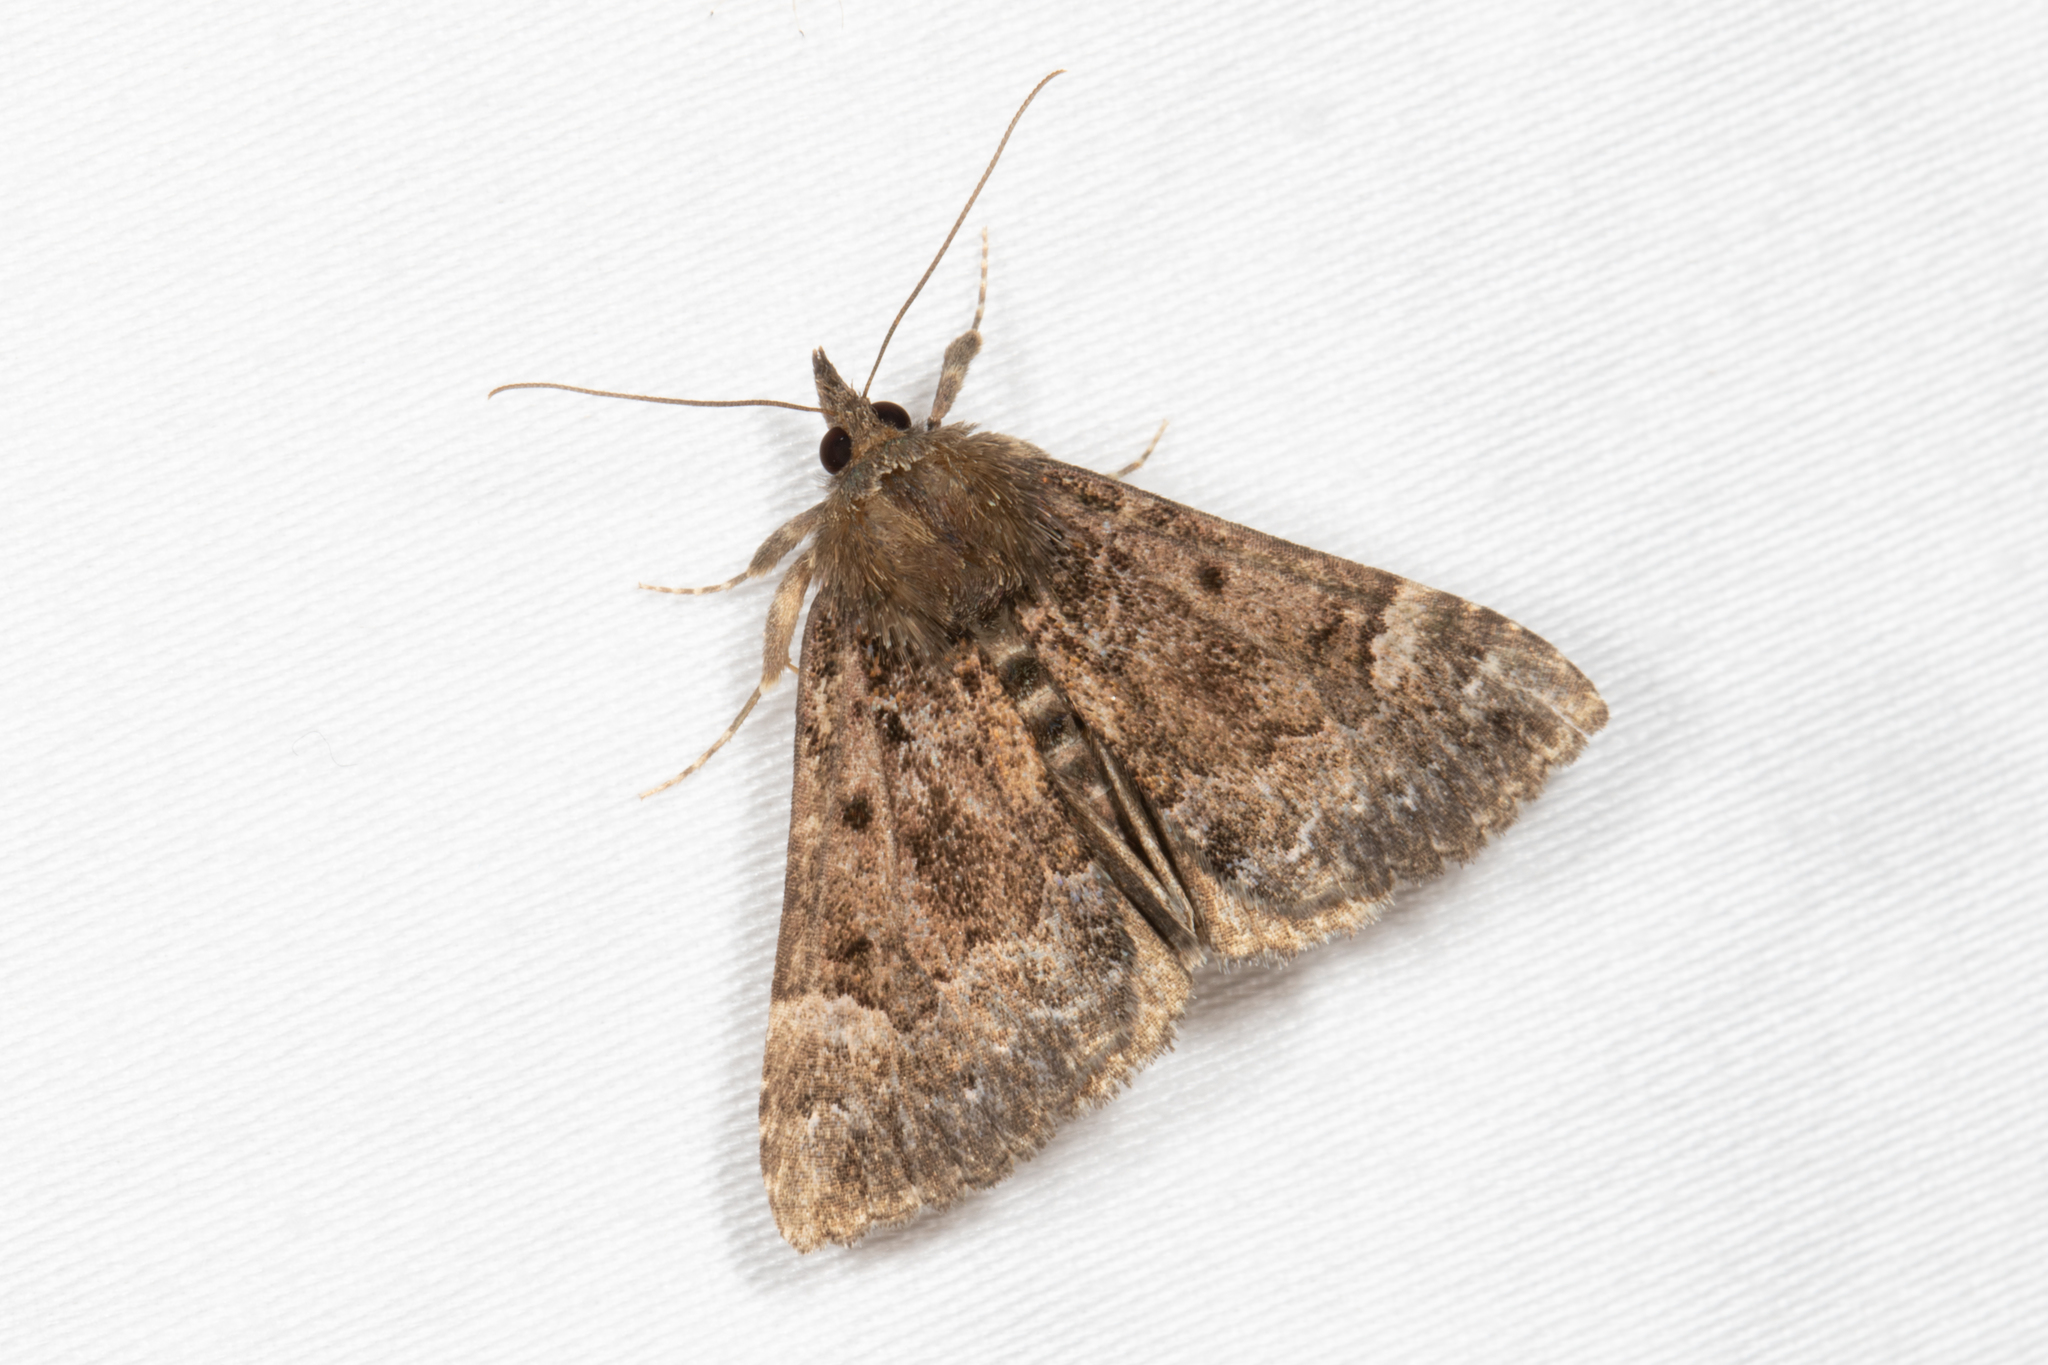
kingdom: Animalia
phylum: Arthropoda
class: Insecta
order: Lepidoptera
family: Erebidae
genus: Hypena
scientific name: Hypena palparia
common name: Mottled bomolocha moth
